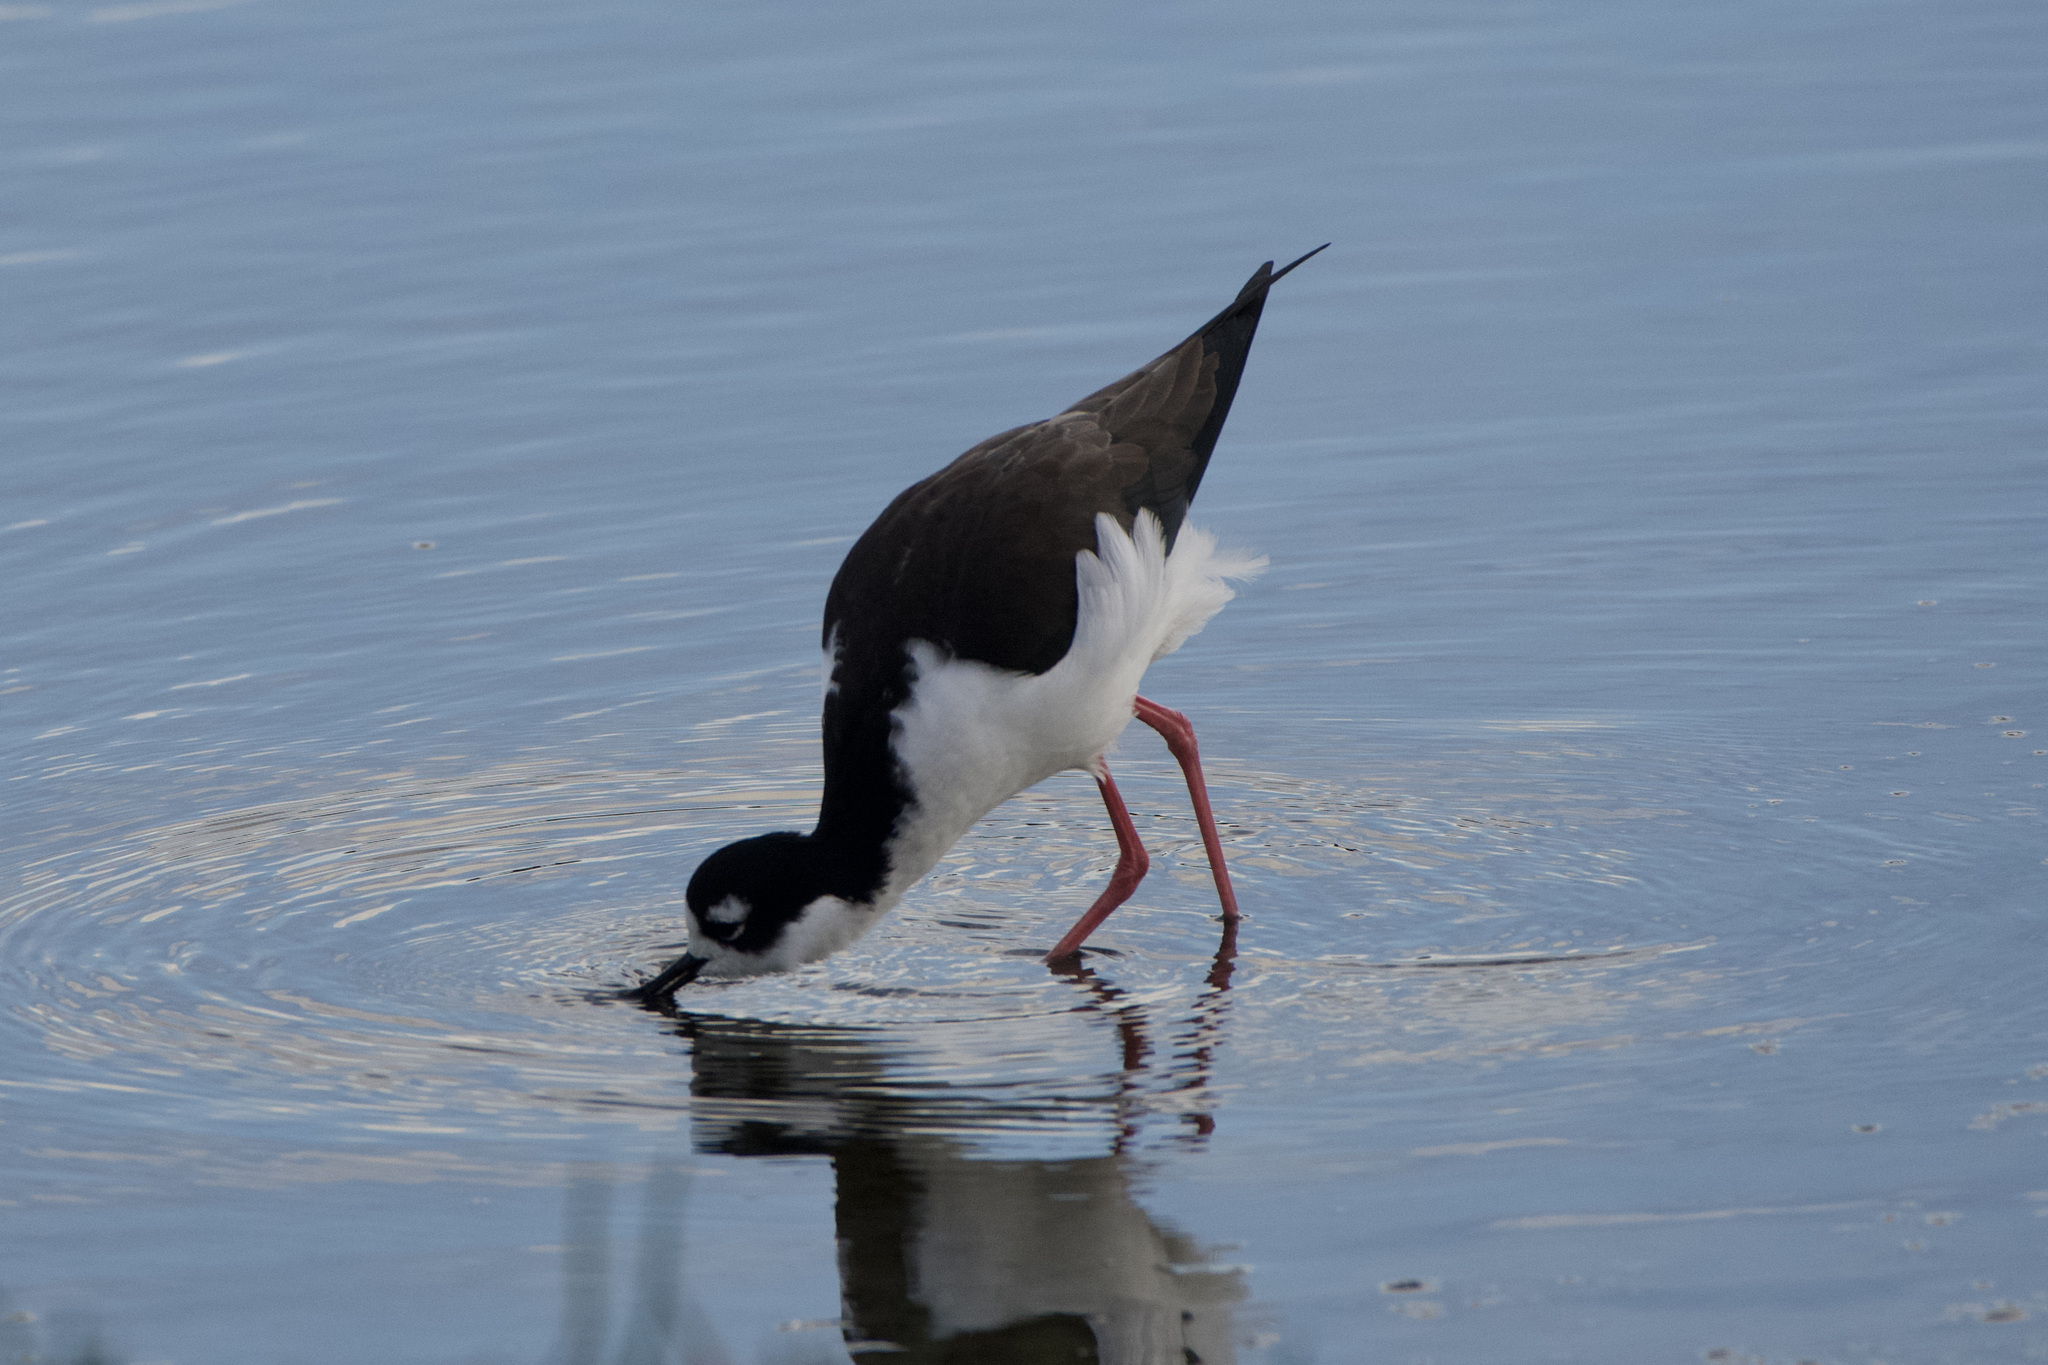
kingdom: Animalia
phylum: Chordata
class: Aves
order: Charadriiformes
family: Recurvirostridae
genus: Himantopus
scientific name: Himantopus mexicanus
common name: Black-necked stilt
